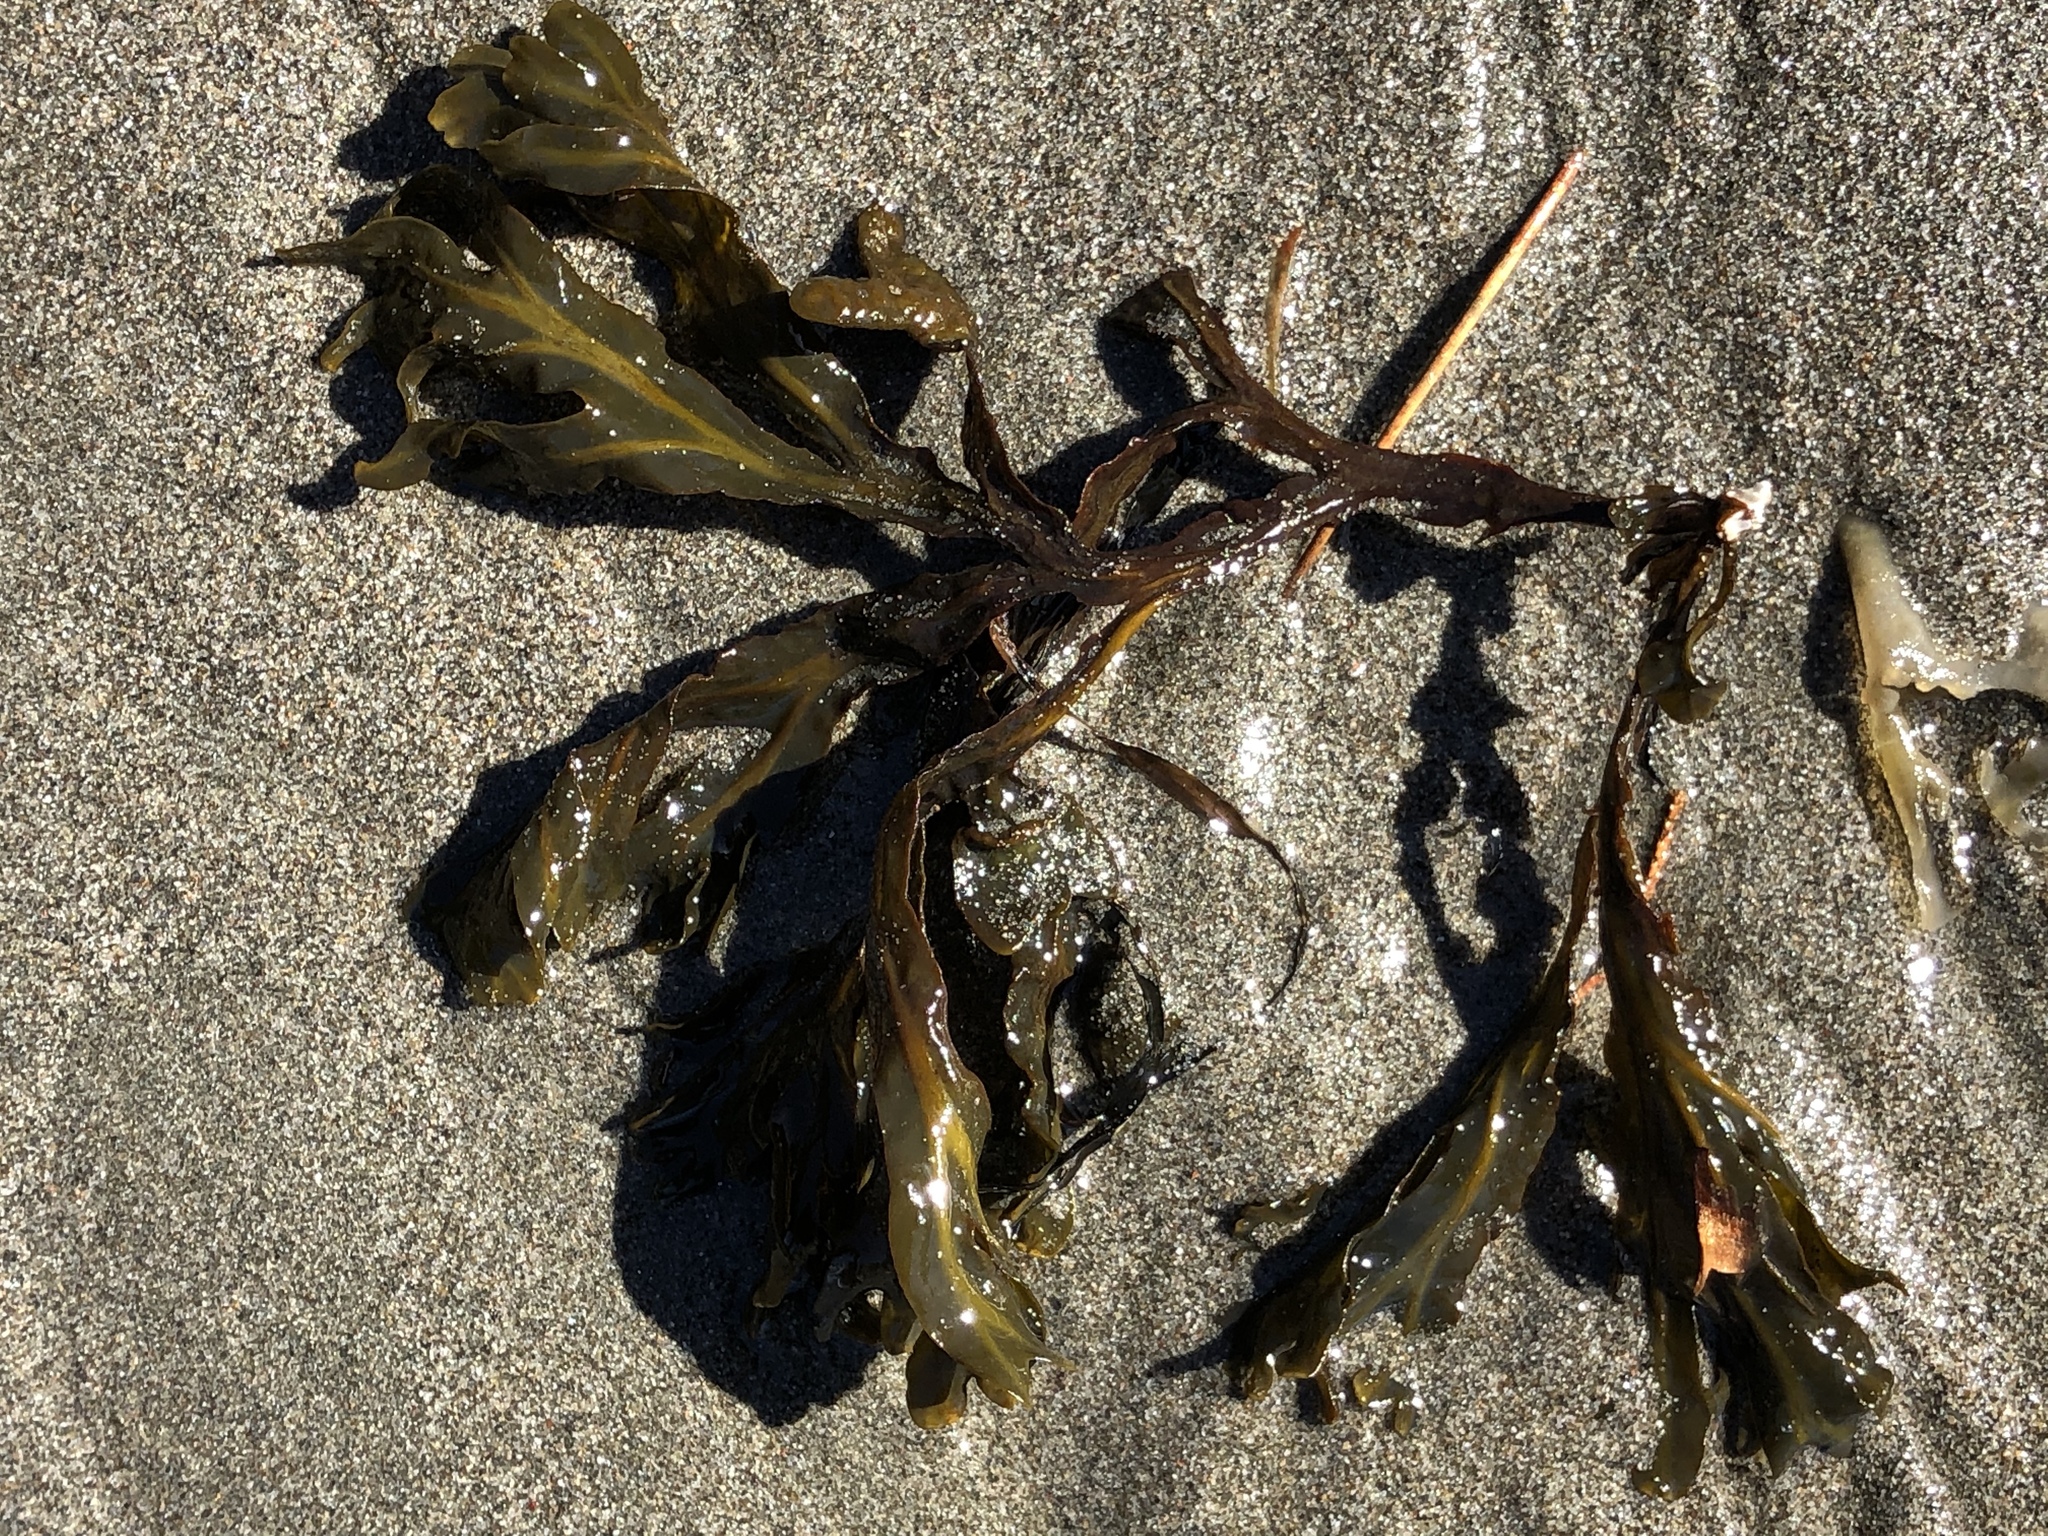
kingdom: Chromista
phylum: Ochrophyta
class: Phaeophyceae
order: Fucales
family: Fucaceae
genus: Fucus
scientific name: Fucus distichus
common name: Rockweed
